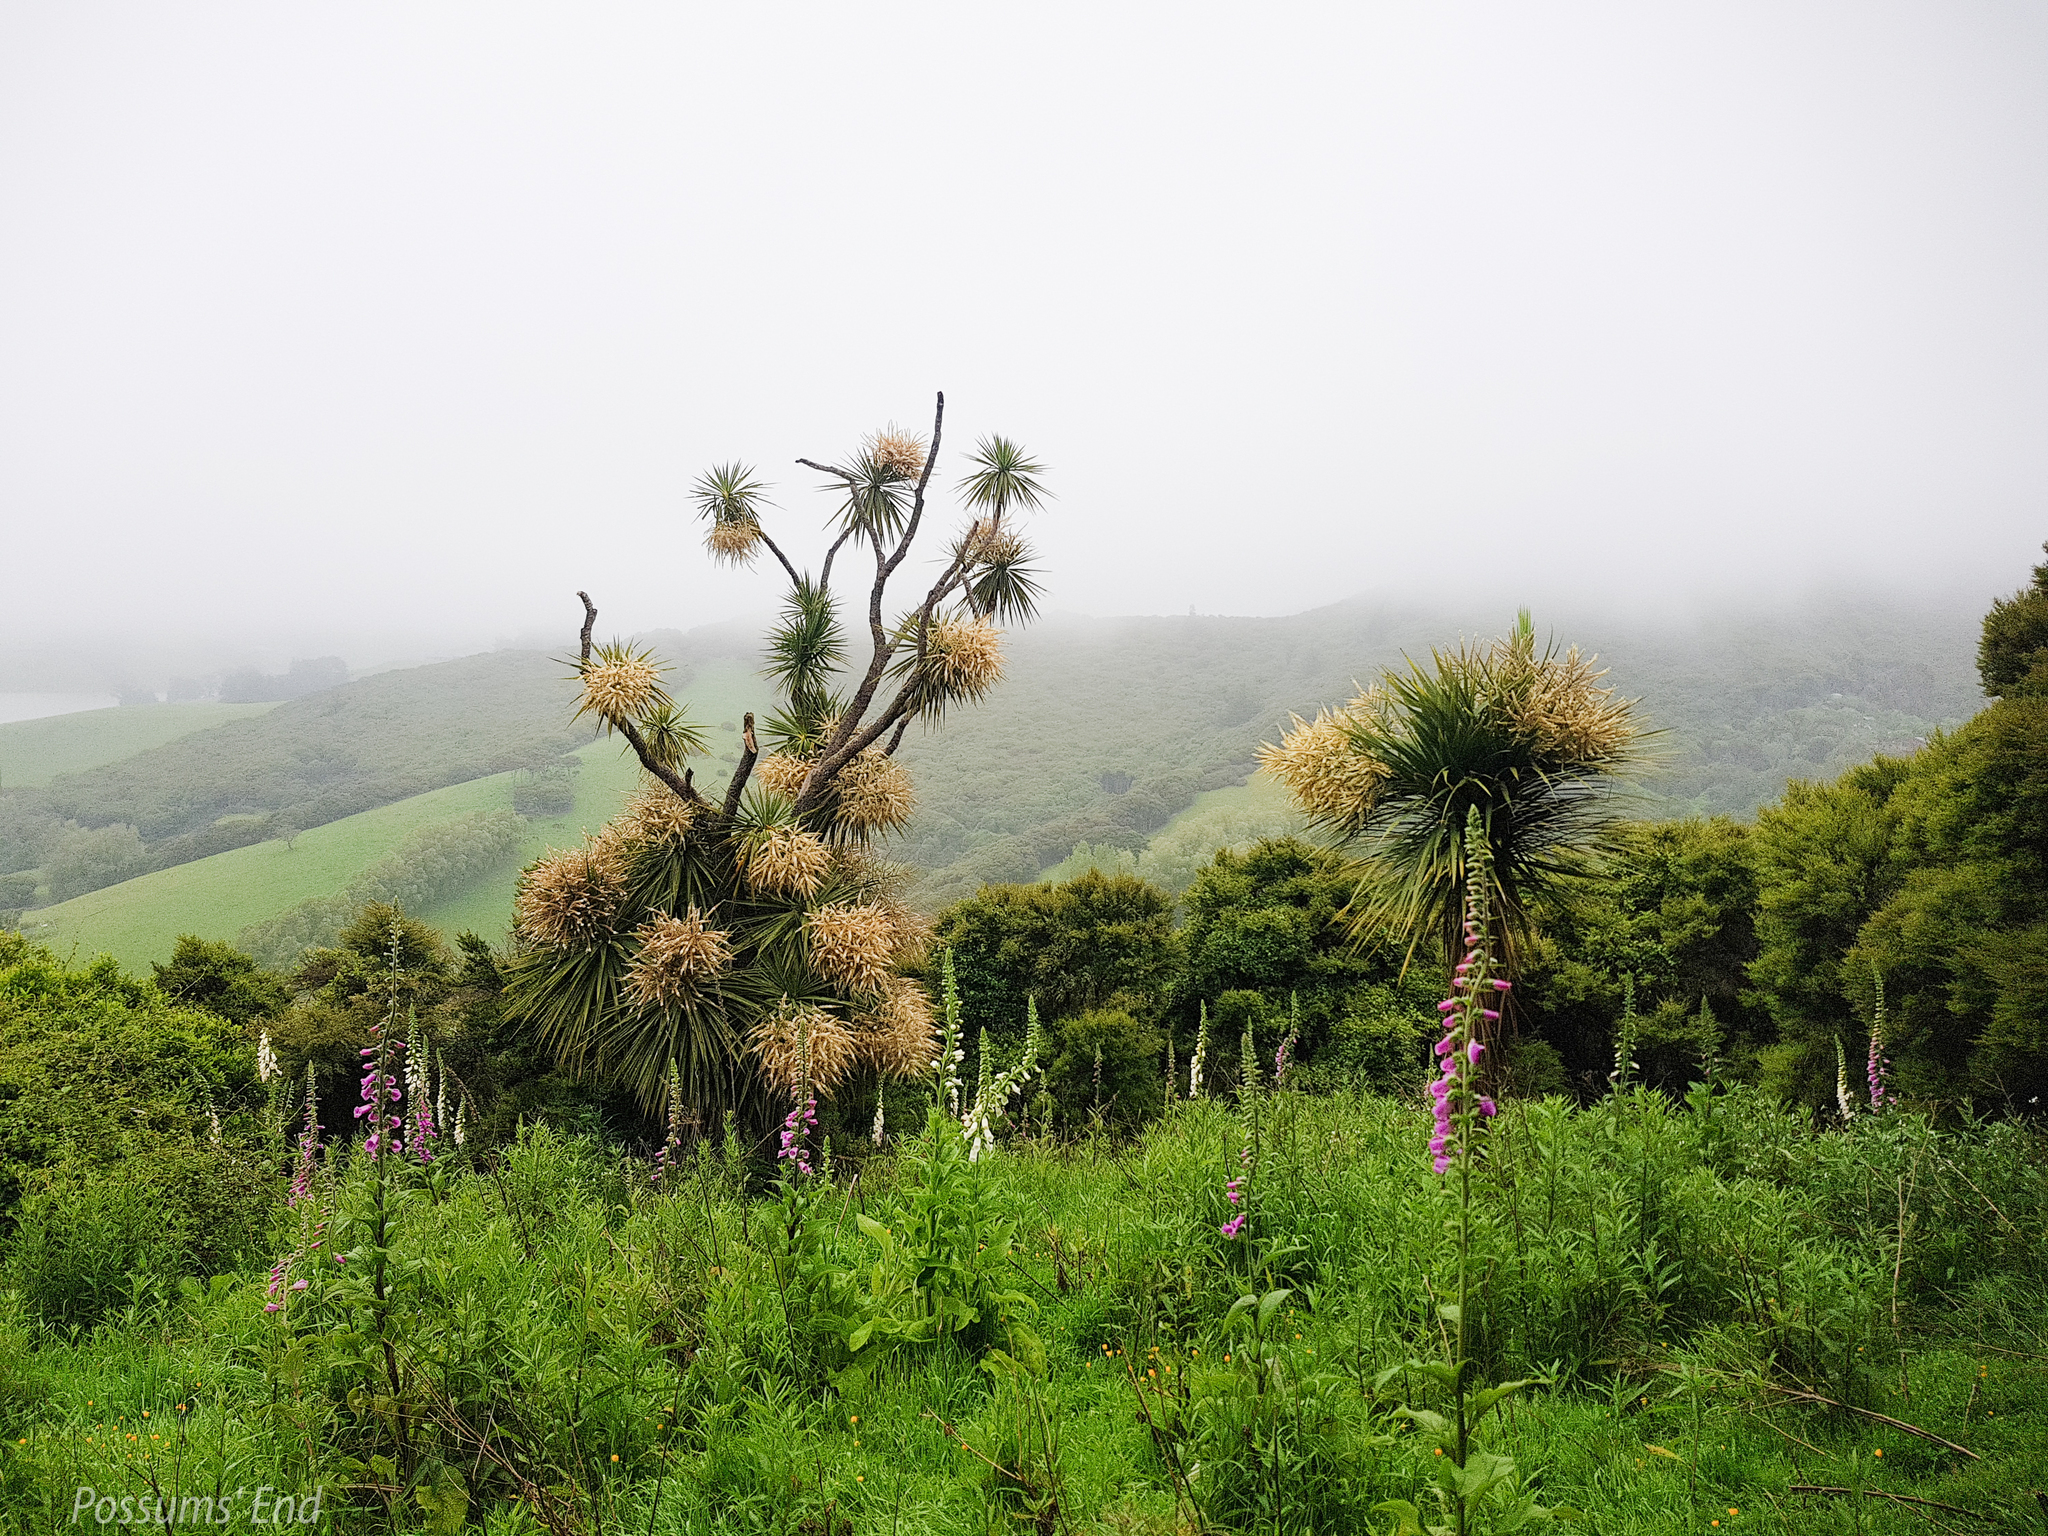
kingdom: Plantae
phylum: Tracheophyta
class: Liliopsida
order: Asparagales
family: Asparagaceae
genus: Cordyline
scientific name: Cordyline australis
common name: Cabbage-palm
